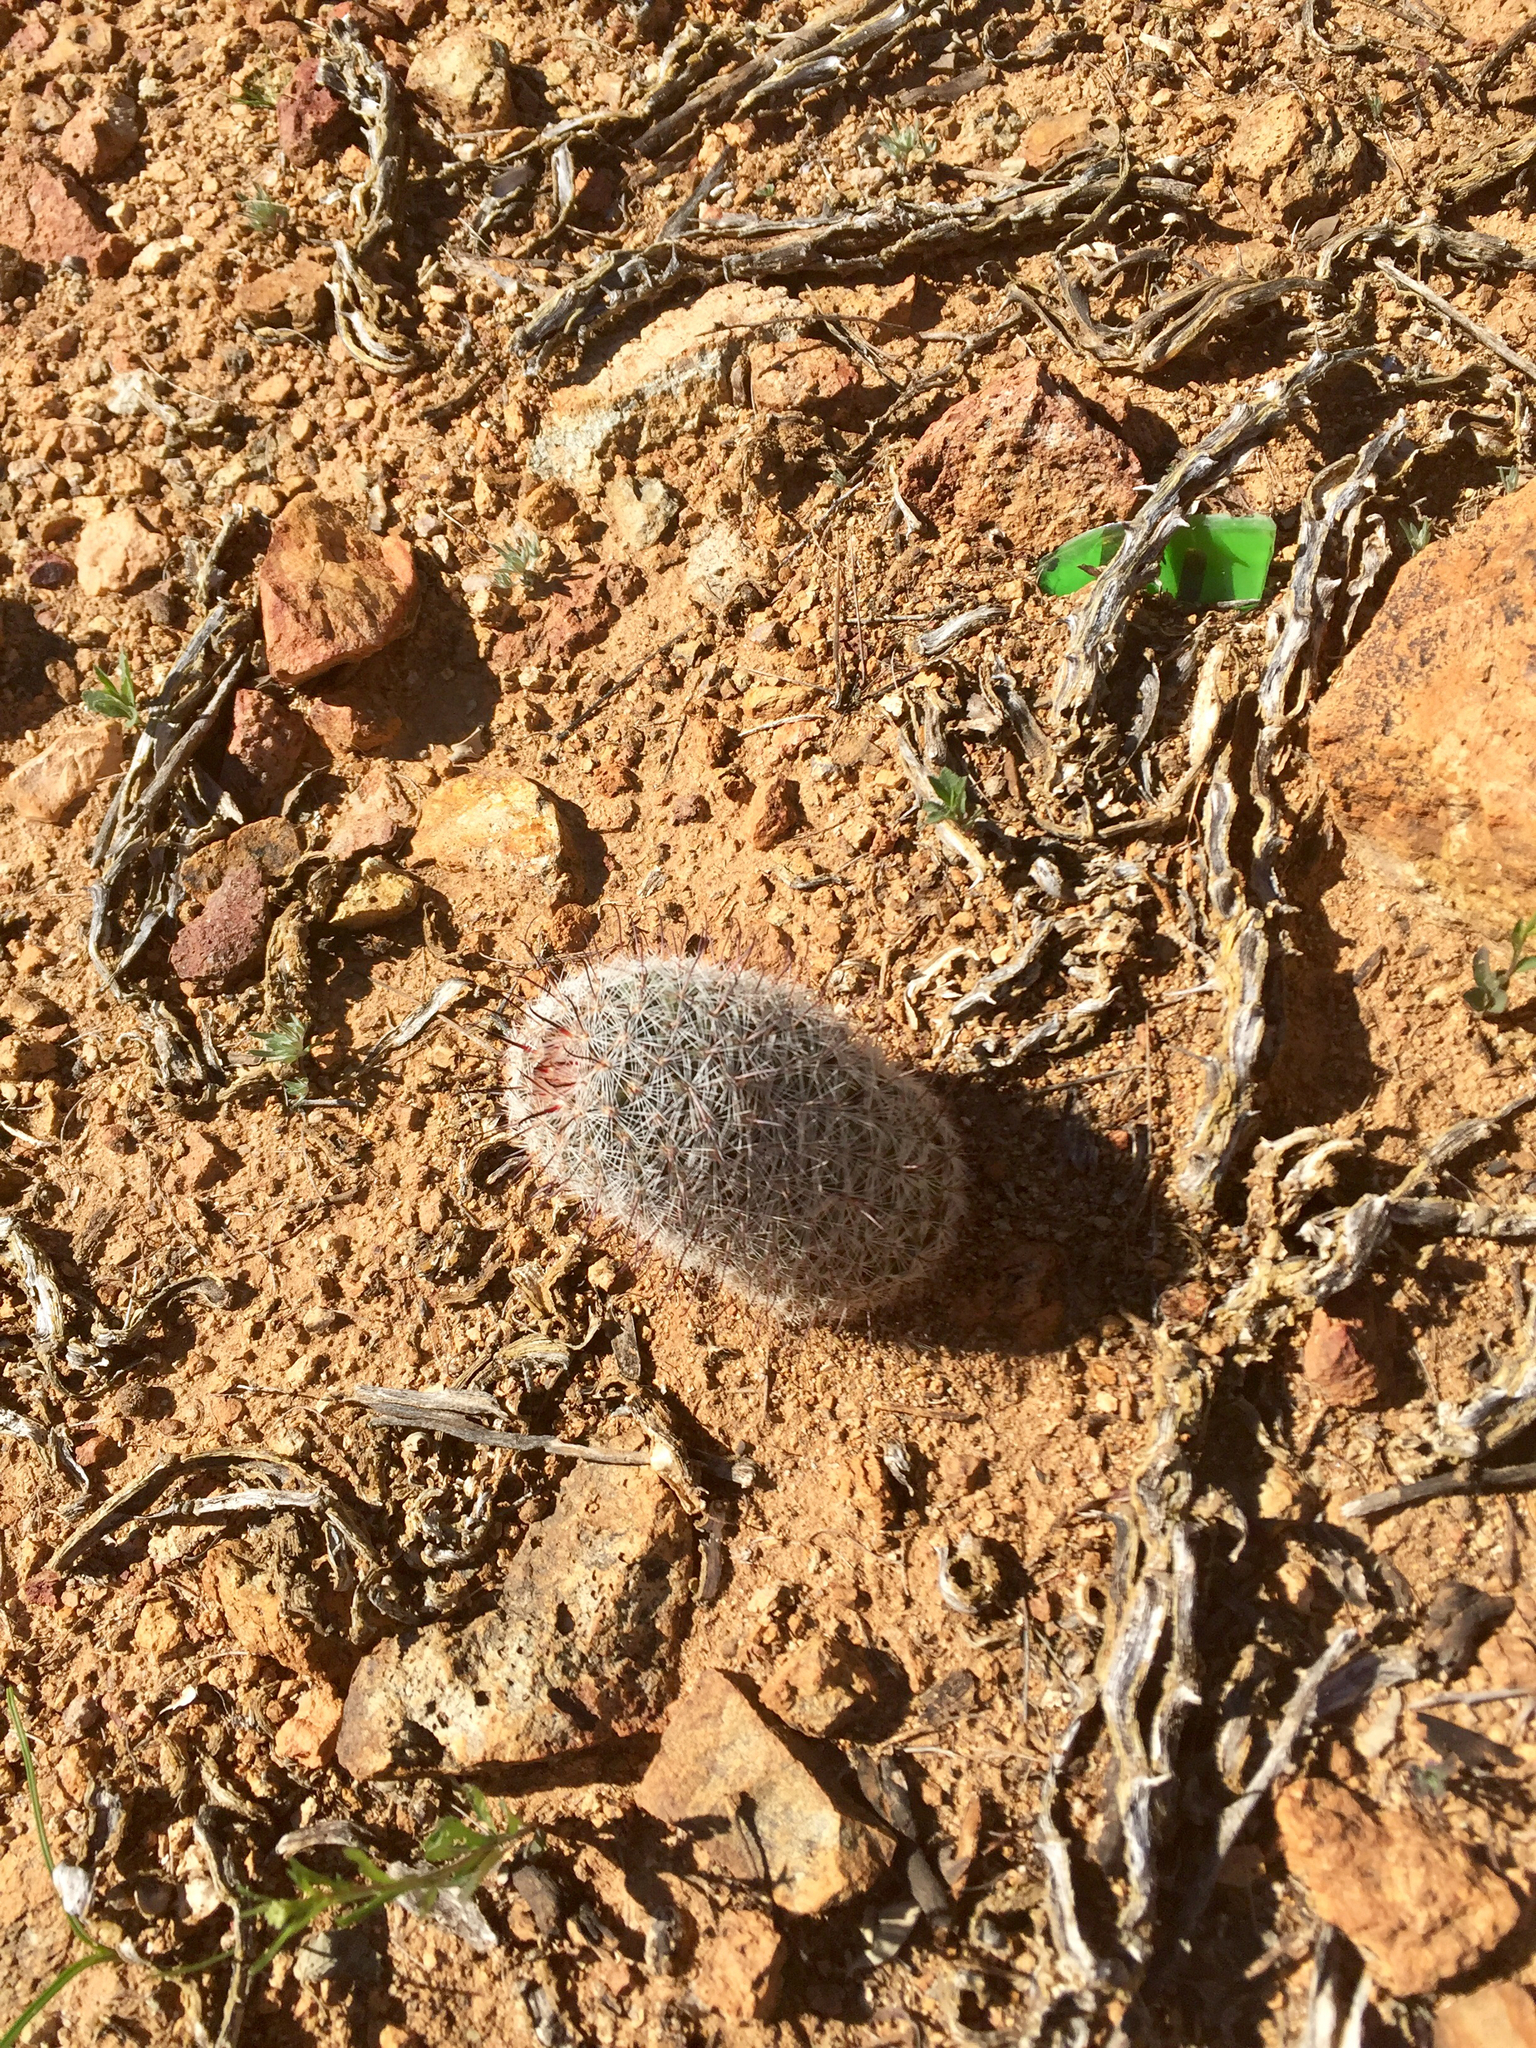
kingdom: Plantae
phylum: Tracheophyta
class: Magnoliopsida
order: Caryophyllales
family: Cactaceae
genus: Cochemiea
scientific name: Cochemiea grahamii
